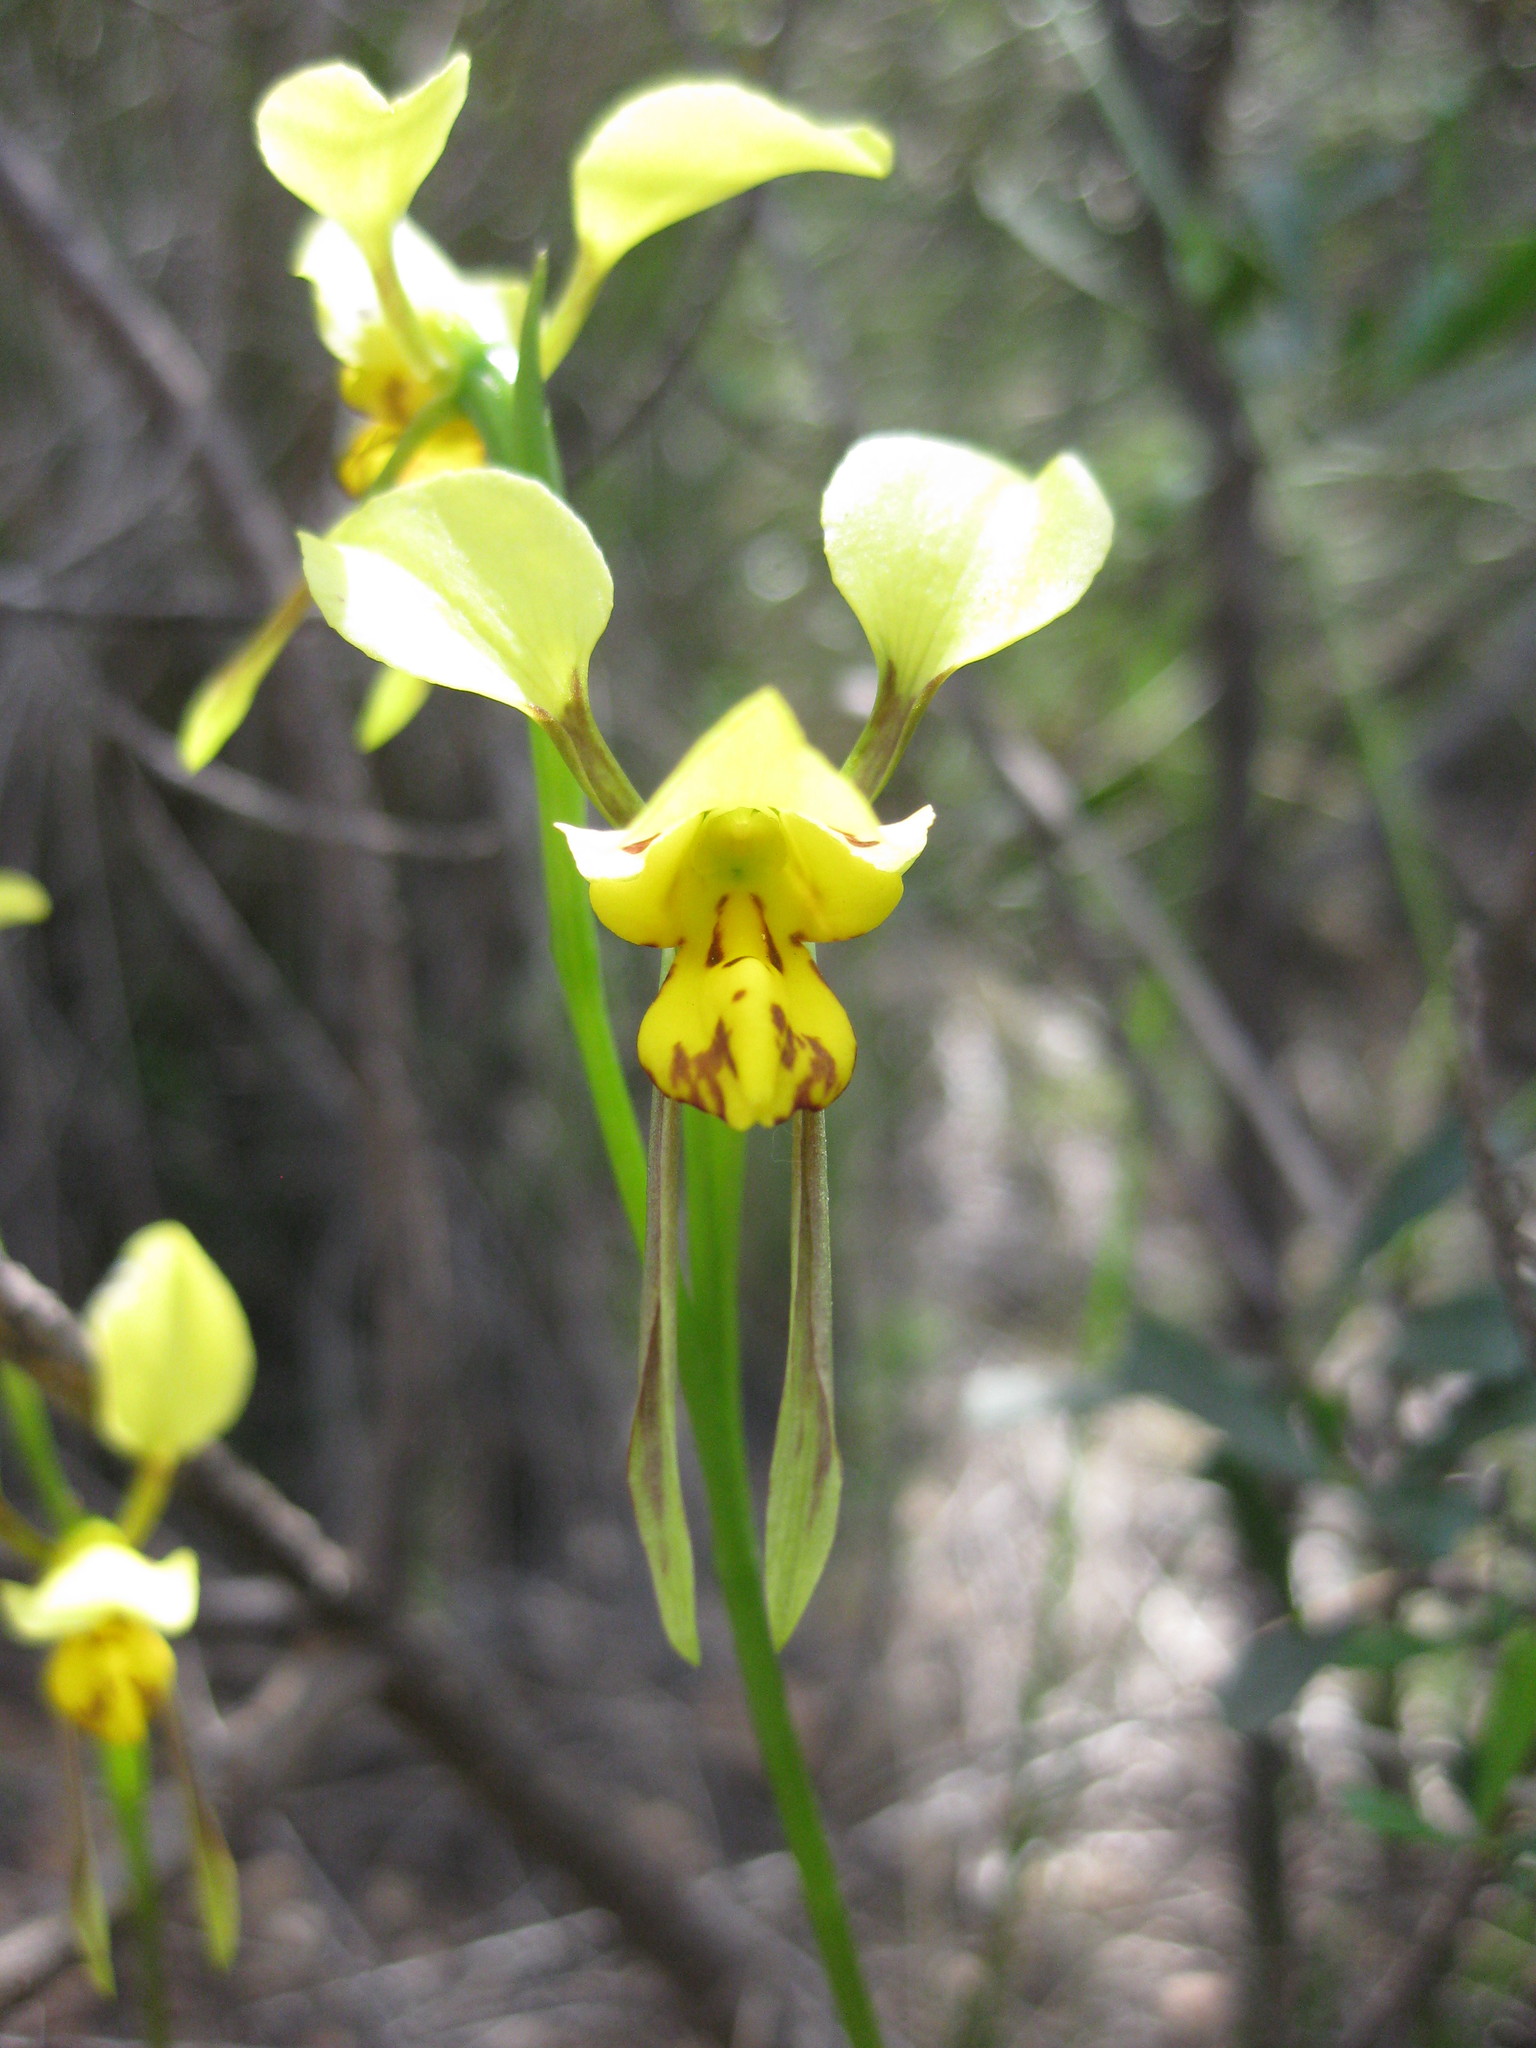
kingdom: Plantae
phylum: Tracheophyta
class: Liliopsida
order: Asparagales
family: Orchidaceae
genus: Diuris
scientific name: Diuris sulphurea
